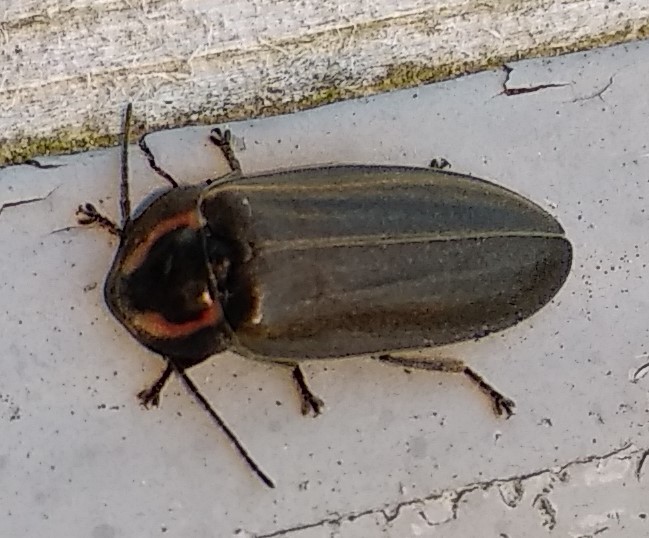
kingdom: Animalia
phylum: Arthropoda
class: Insecta
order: Coleoptera
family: Lampyridae
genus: Photinus
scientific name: Photinus corrusca
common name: Winter firefly
